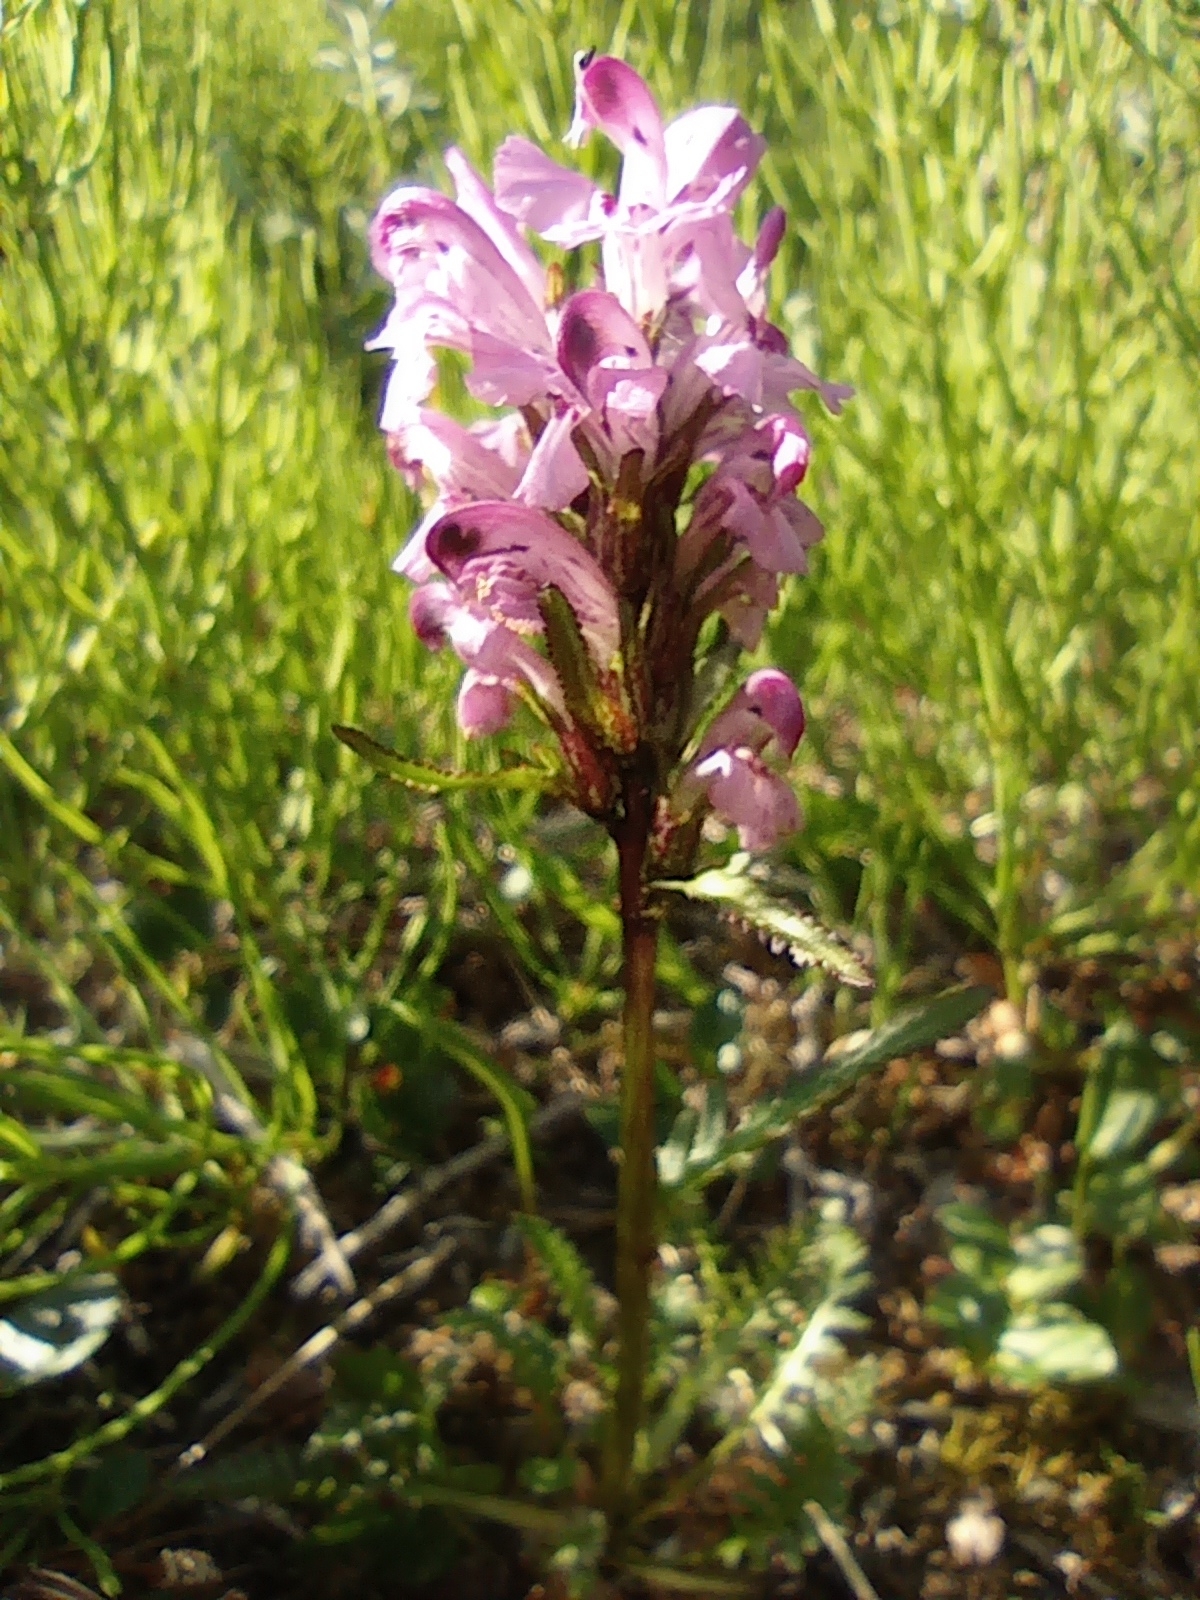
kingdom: Plantae
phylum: Tracheophyta
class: Magnoliopsida
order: Lamiales
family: Orobanchaceae
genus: Pedicularis
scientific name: Pedicularis sudetica
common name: Sudeten lousewort
